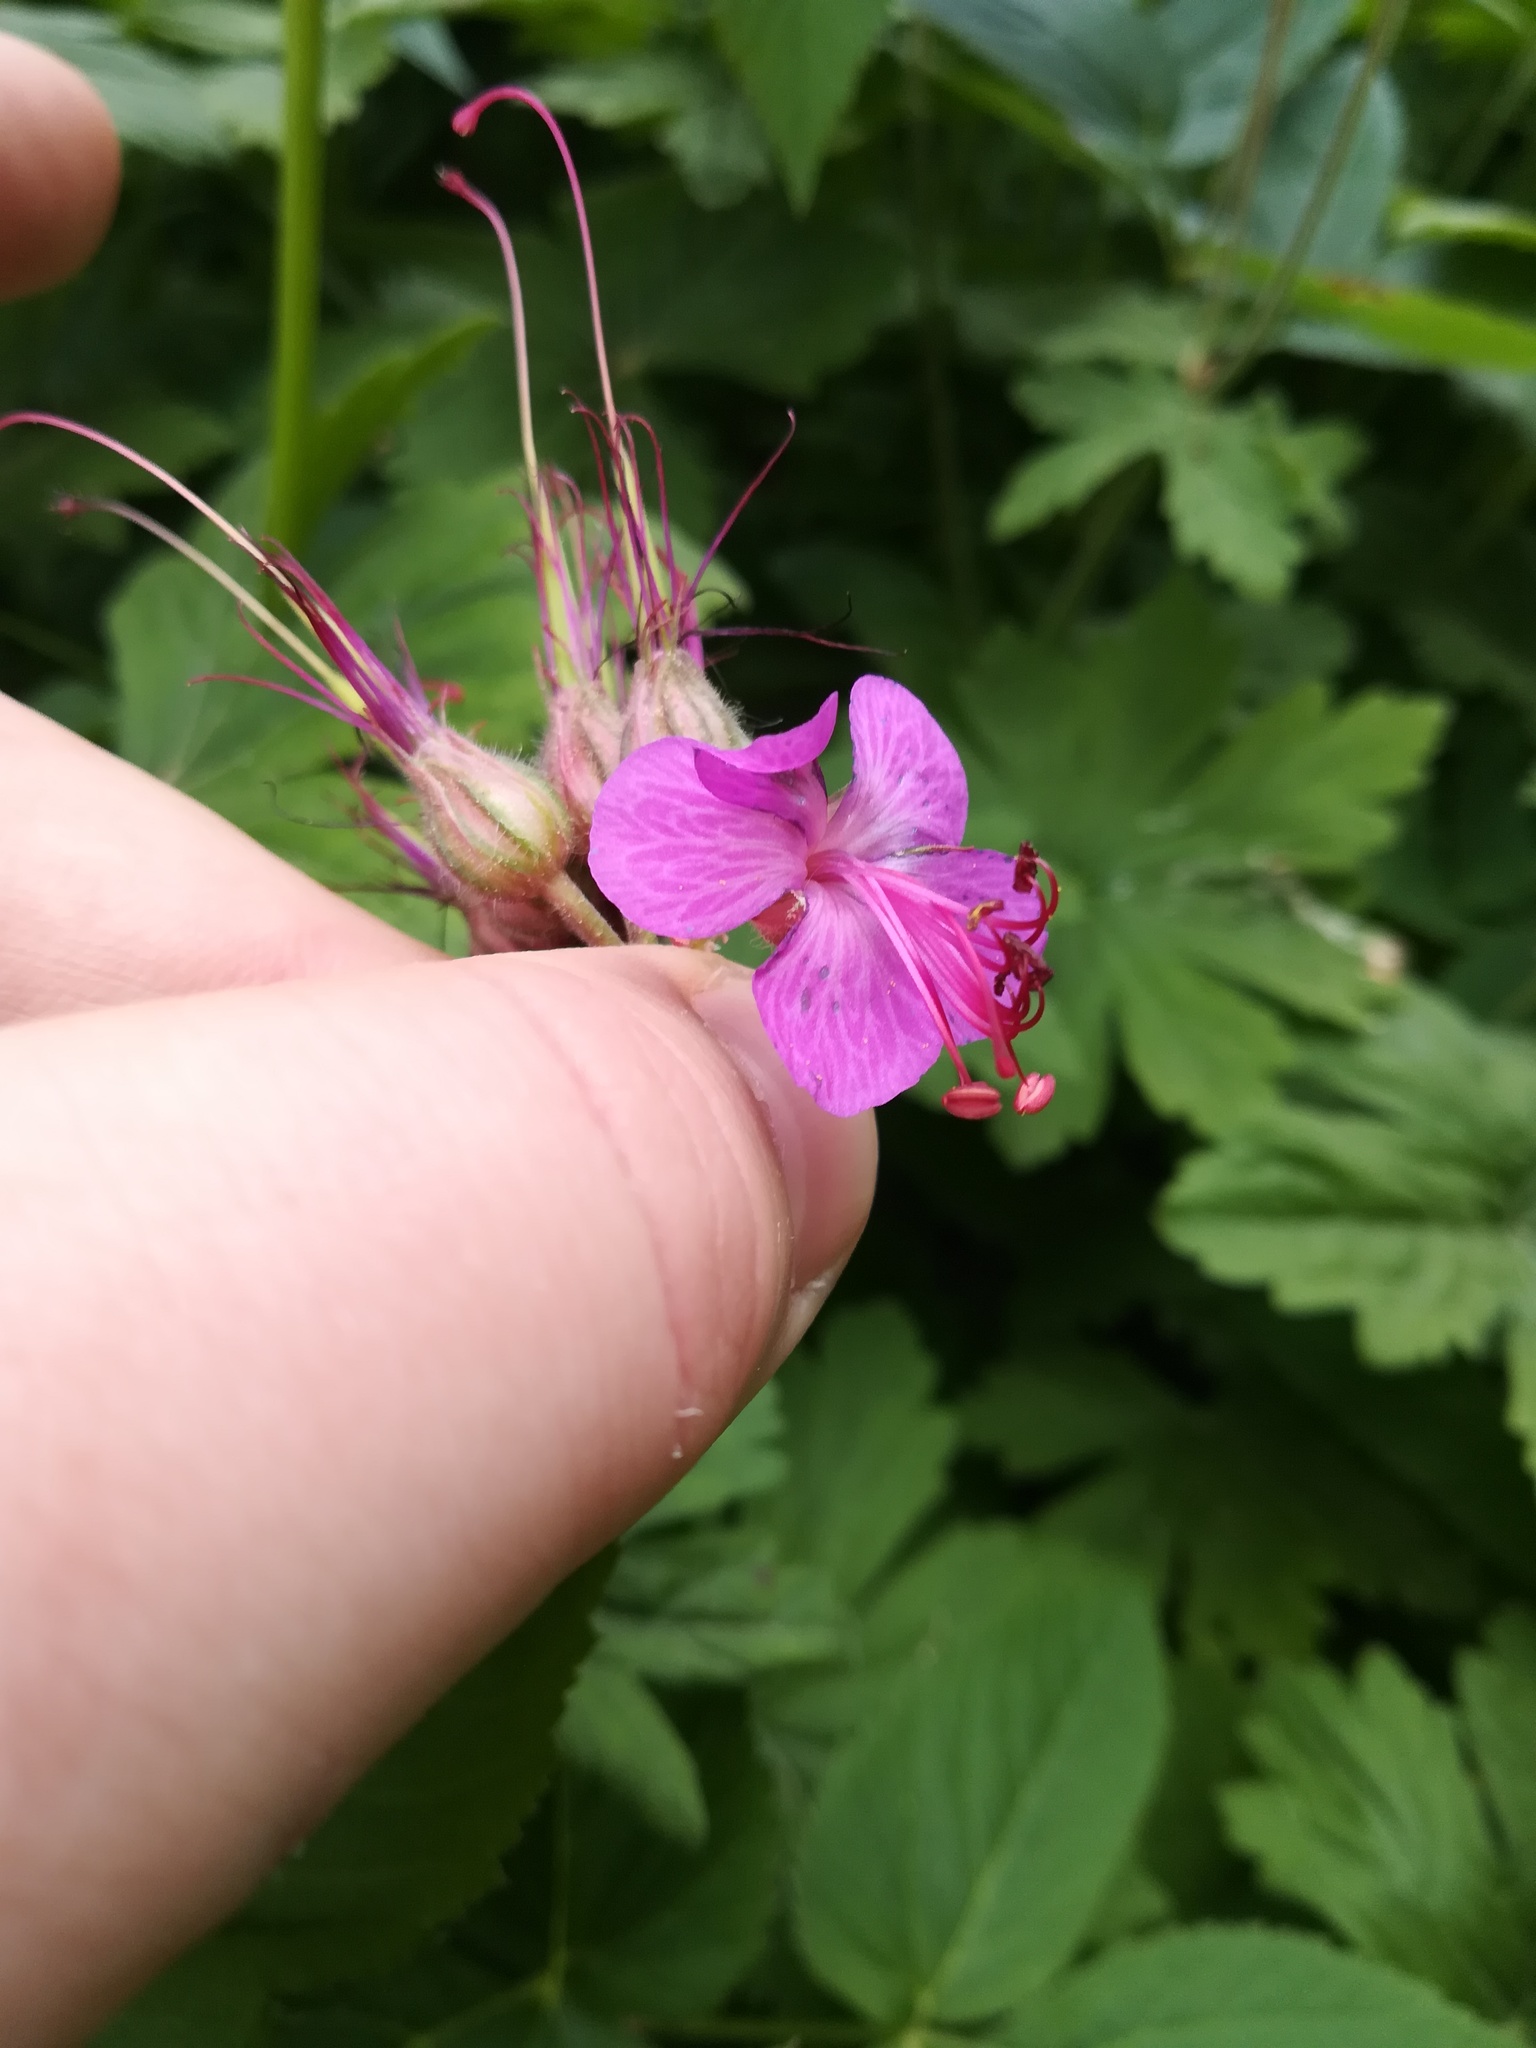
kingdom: Plantae
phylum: Tracheophyta
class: Magnoliopsida
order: Geraniales
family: Geraniaceae
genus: Geranium
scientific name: Geranium macrorrhizum
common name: Rock crane's-bill
